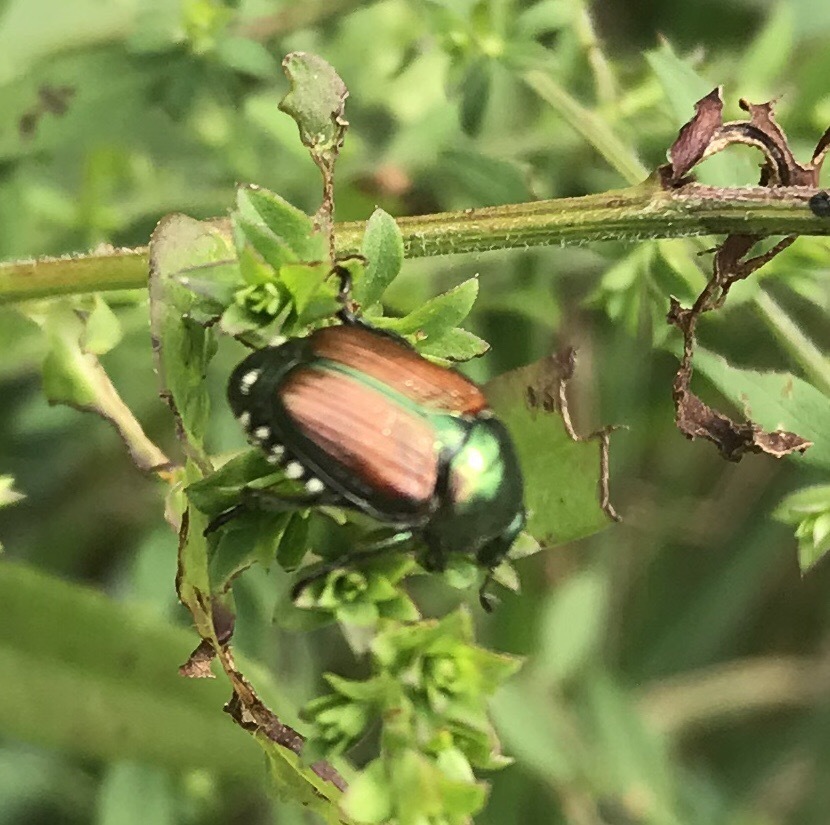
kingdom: Animalia
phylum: Arthropoda
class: Insecta
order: Coleoptera
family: Scarabaeidae
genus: Popillia
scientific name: Popillia japonica
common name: Japanese beetle
